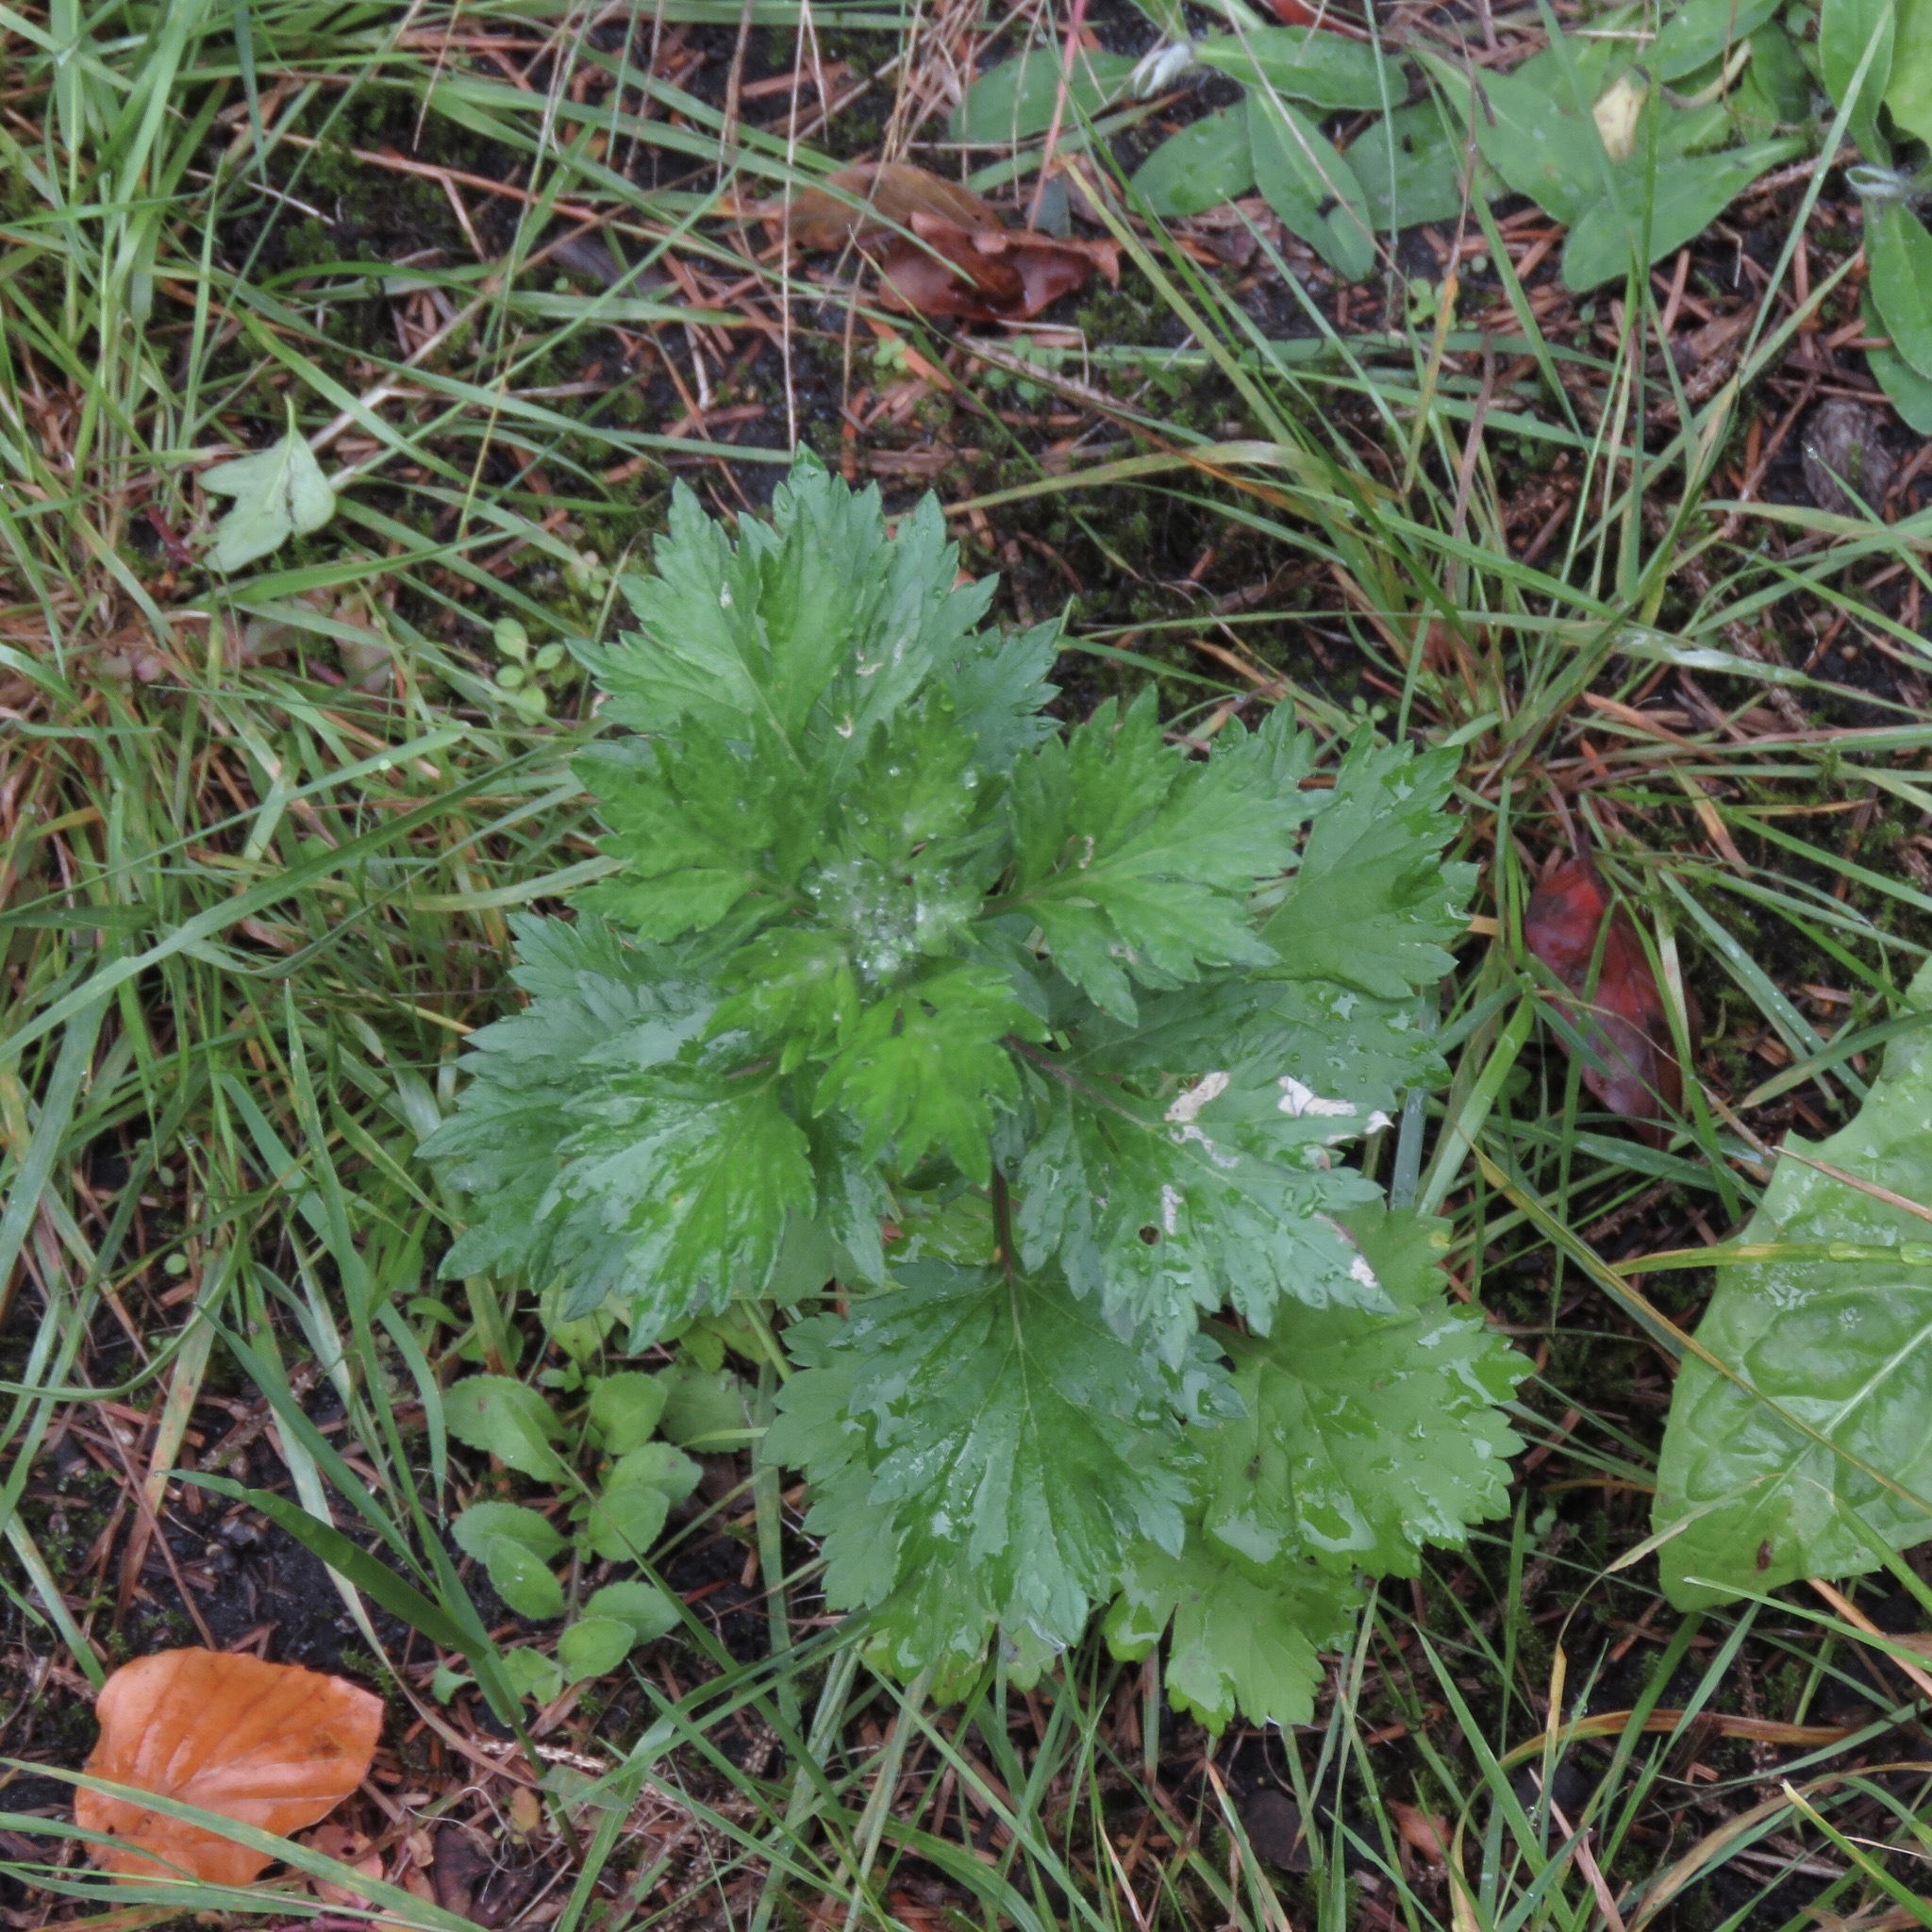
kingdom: Plantae
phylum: Tracheophyta
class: Magnoliopsida
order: Asterales
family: Asteraceae
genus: Artemisia
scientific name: Artemisia vulgaris
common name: Mugwort
